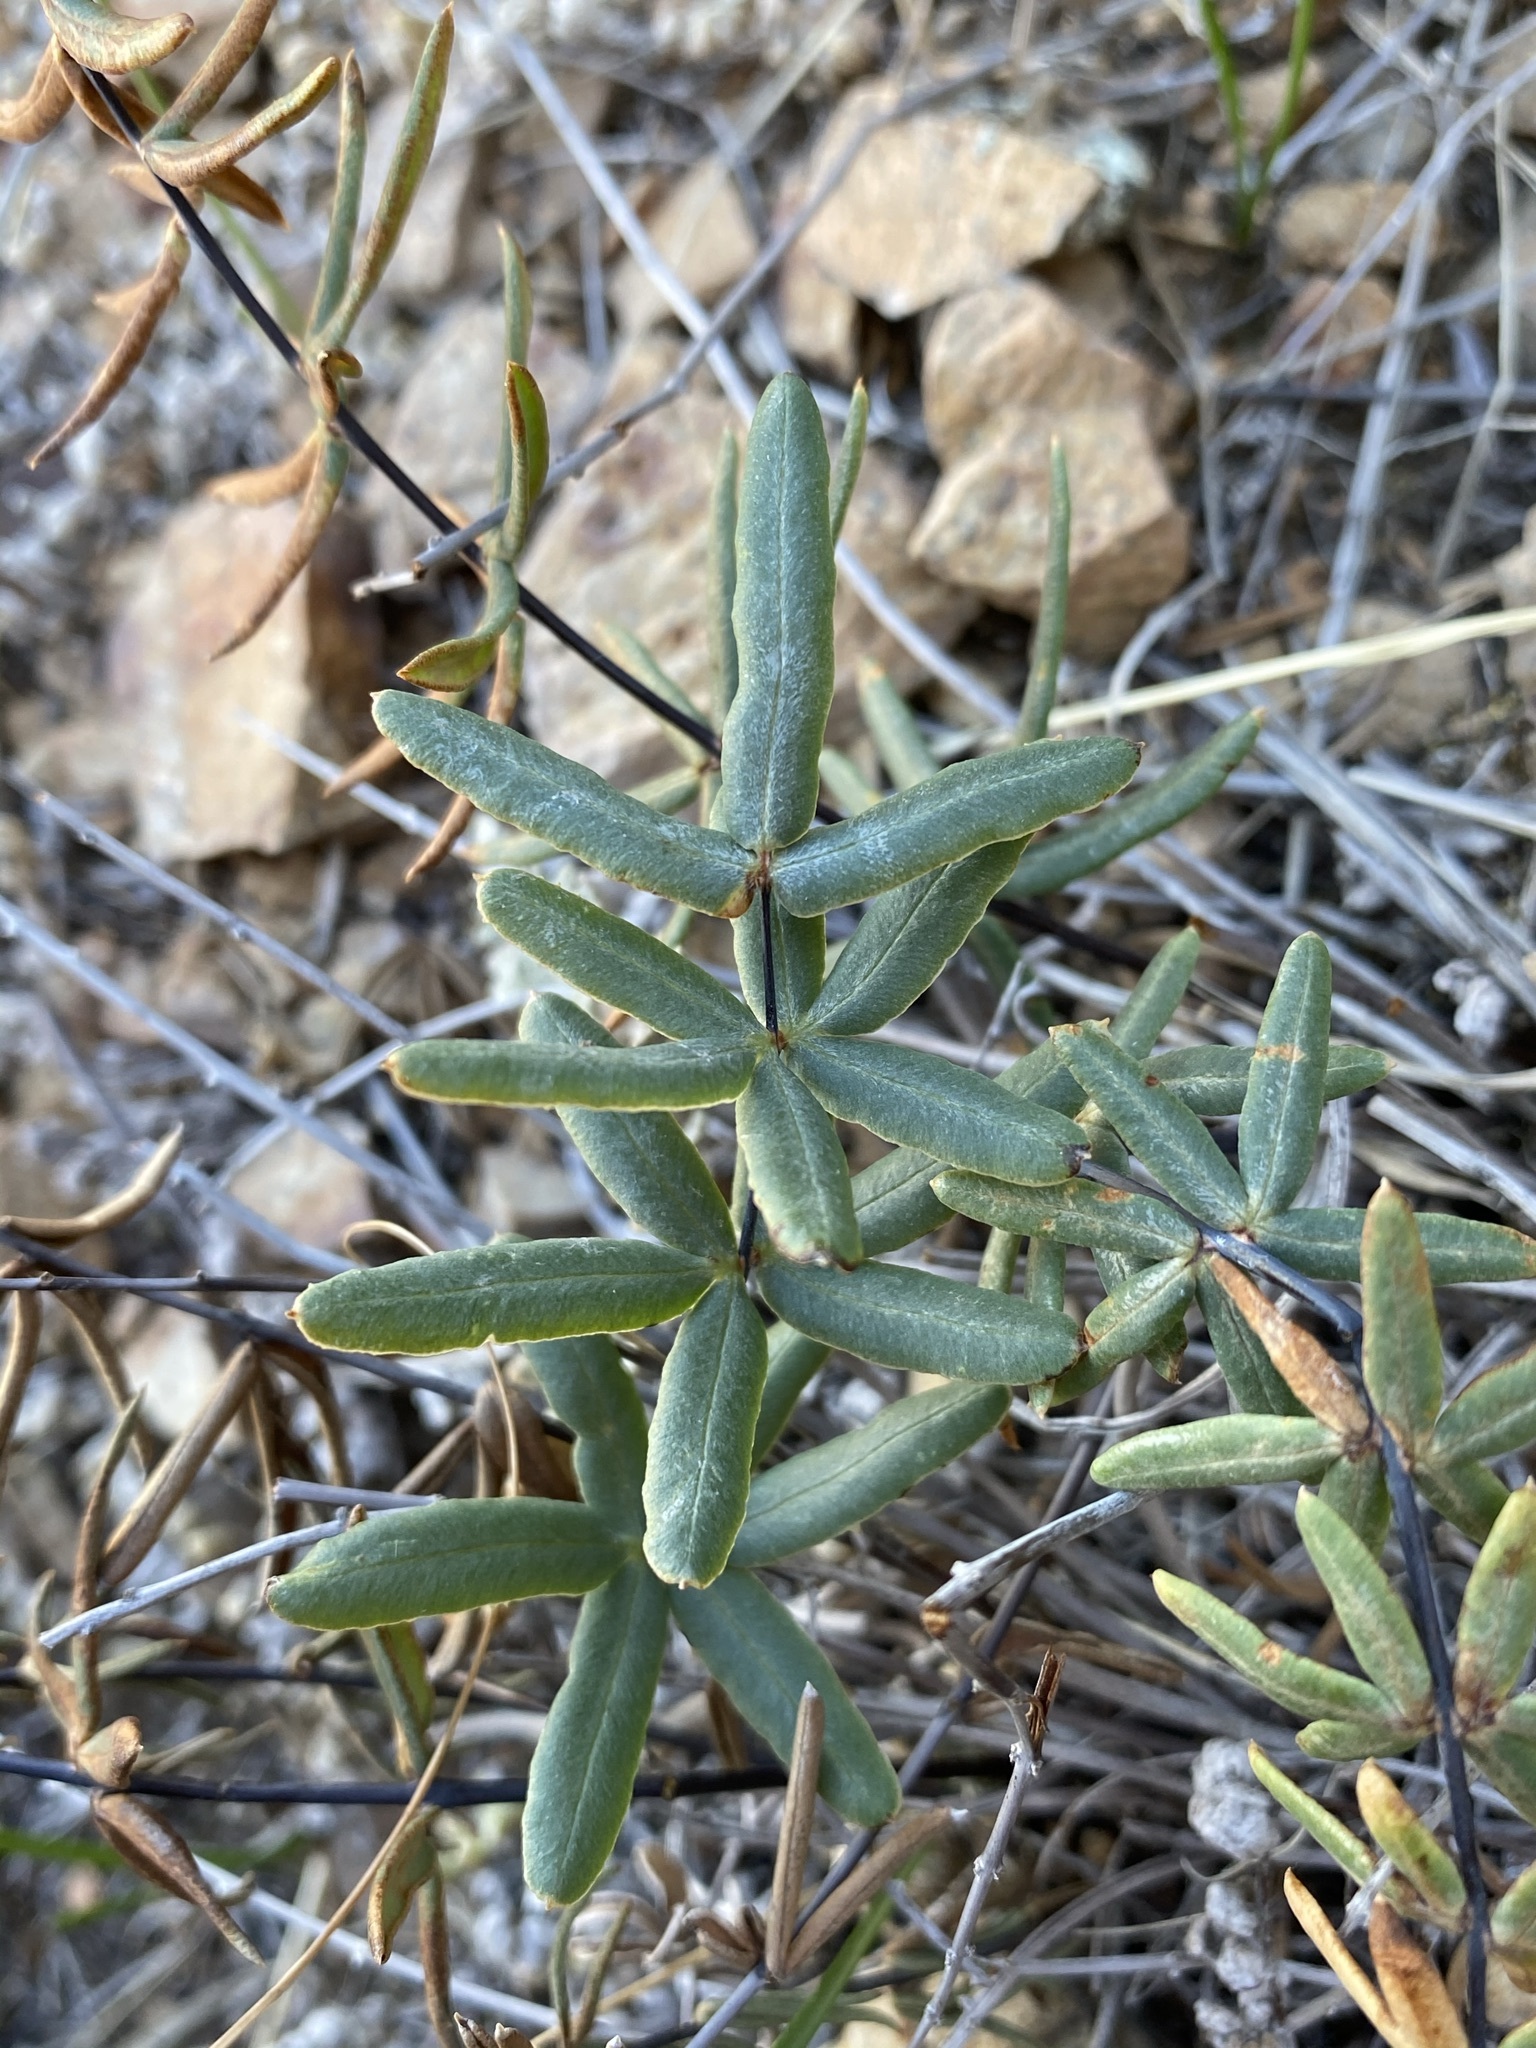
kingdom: Plantae
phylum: Tracheophyta
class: Polypodiopsida
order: Polypodiales
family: Pteridaceae
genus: Pellaea
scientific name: Pellaea ternifolia
